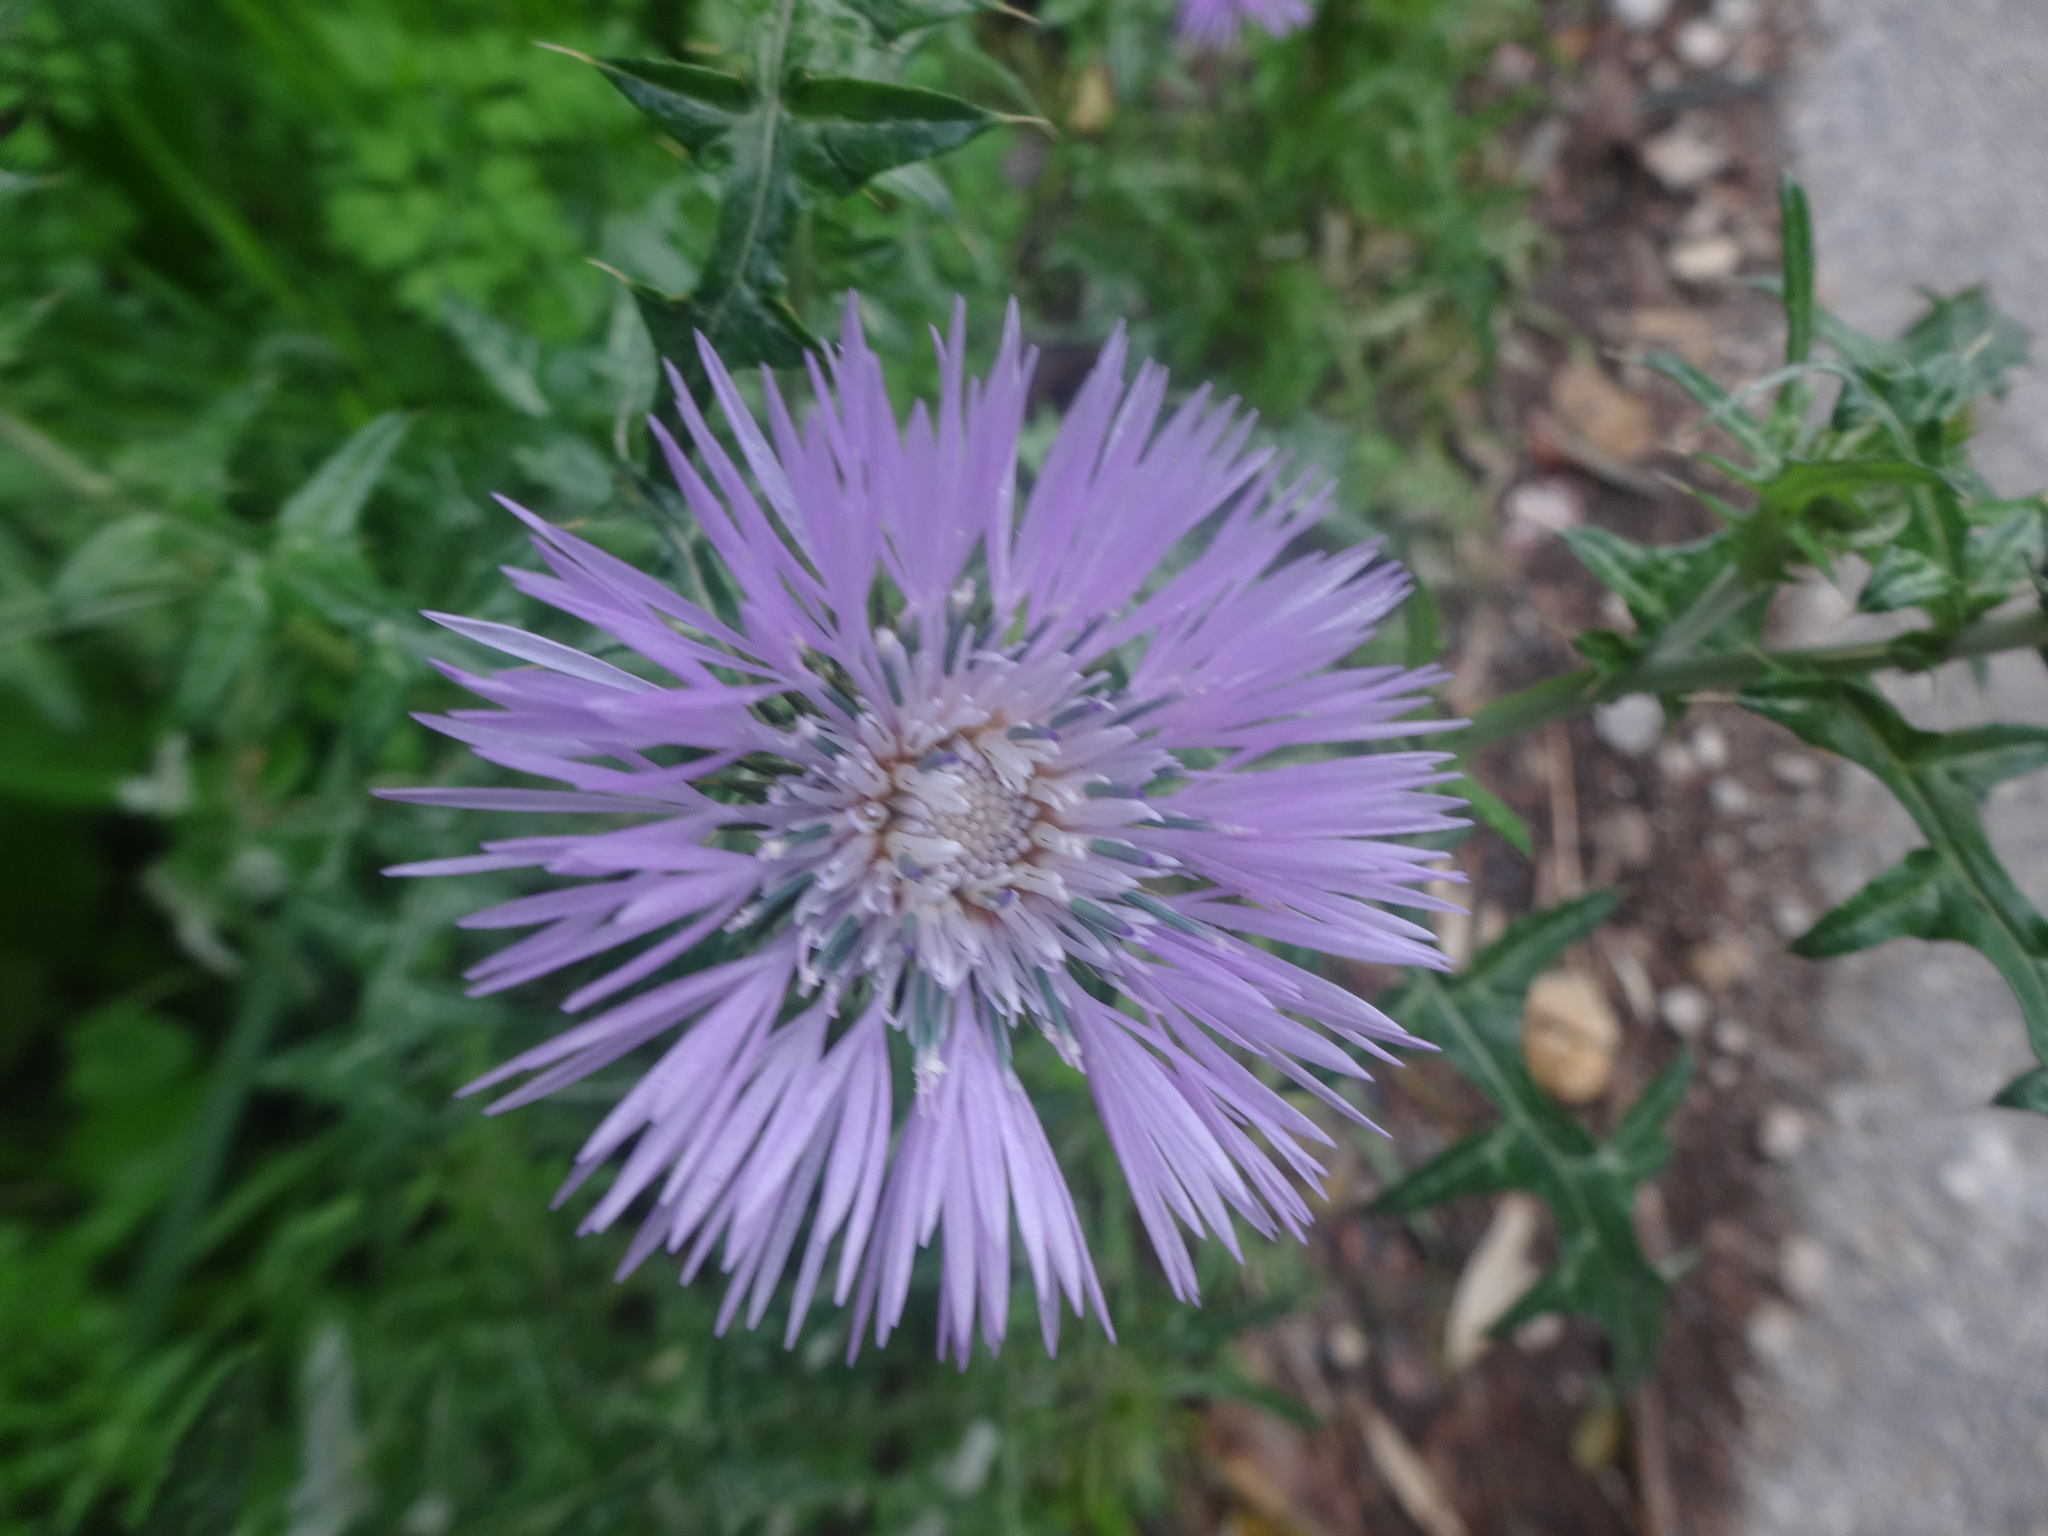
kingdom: Plantae
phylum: Tracheophyta
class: Magnoliopsida
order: Asterales
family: Asteraceae
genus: Galactites
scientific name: Galactites tomentosa
